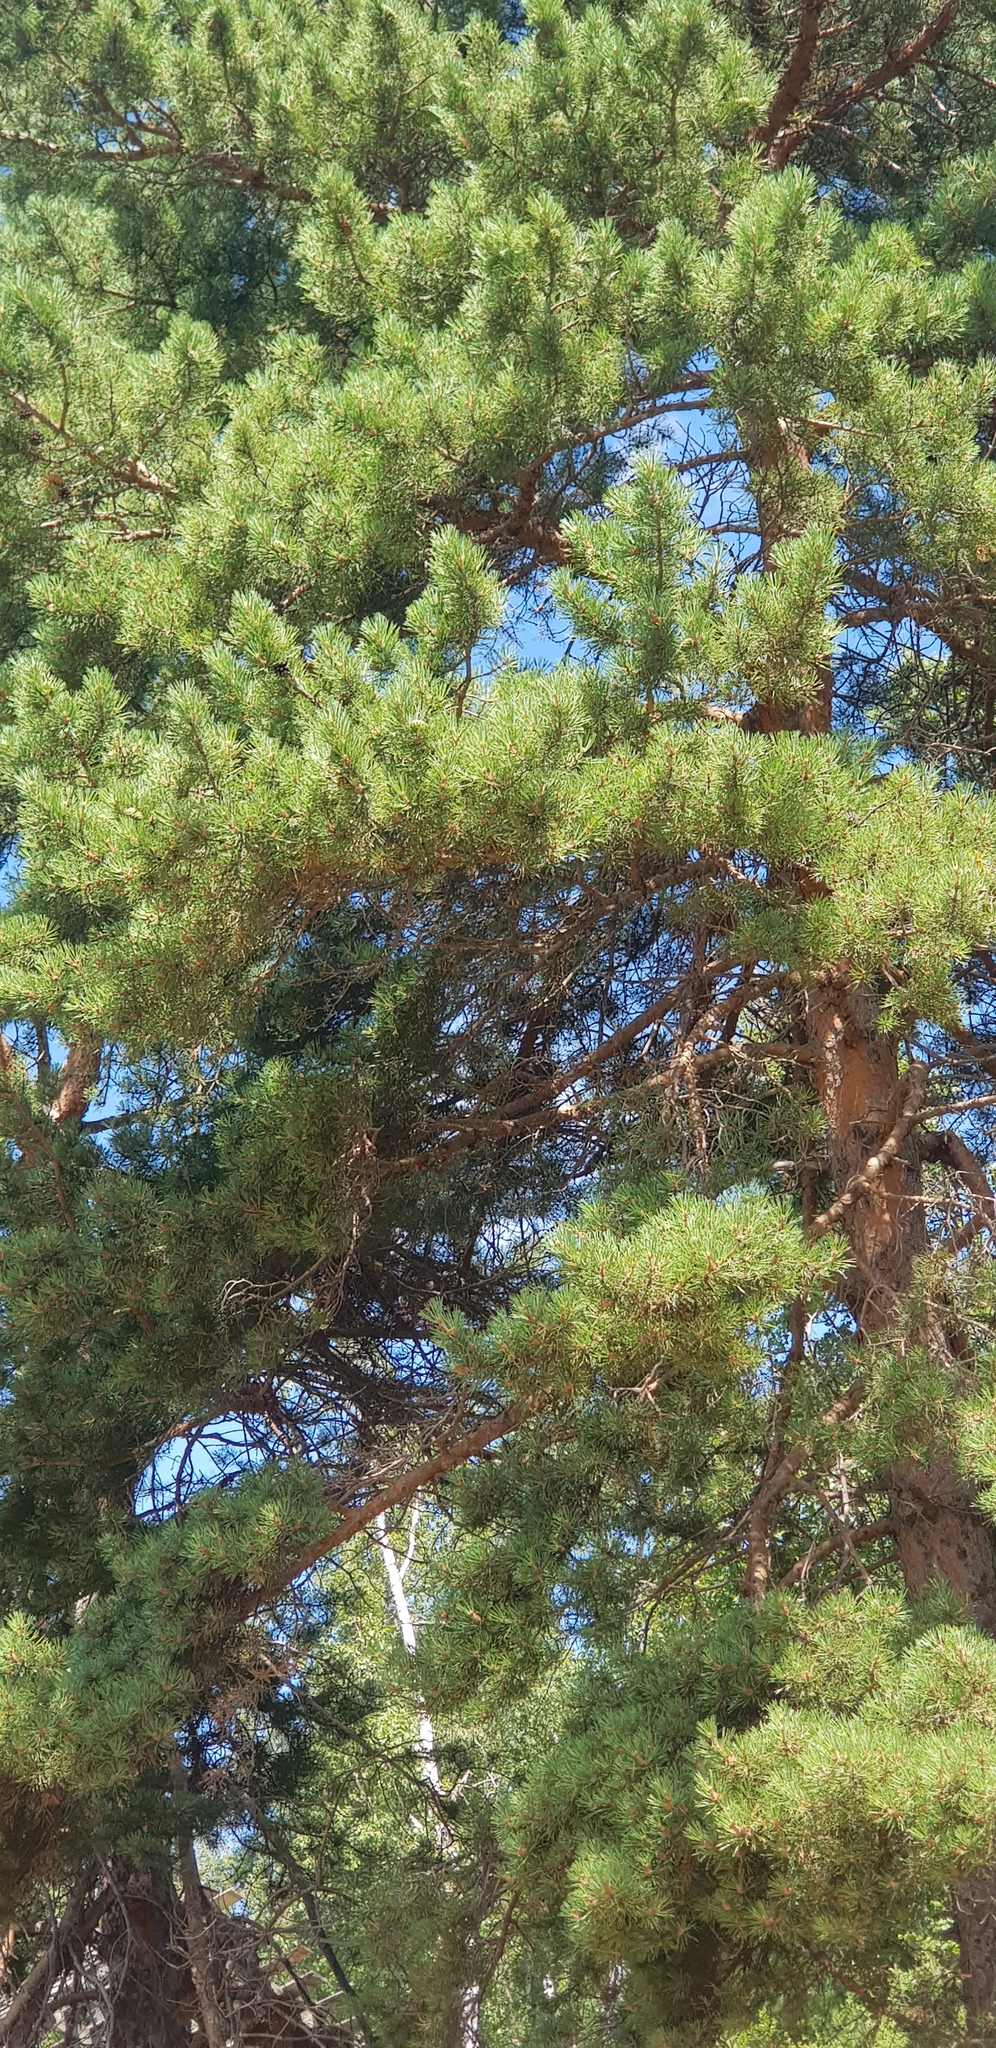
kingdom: Plantae
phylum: Tracheophyta
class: Pinopsida
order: Pinales
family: Pinaceae
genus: Pinus
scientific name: Pinus sylvestris
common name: Scots pine
